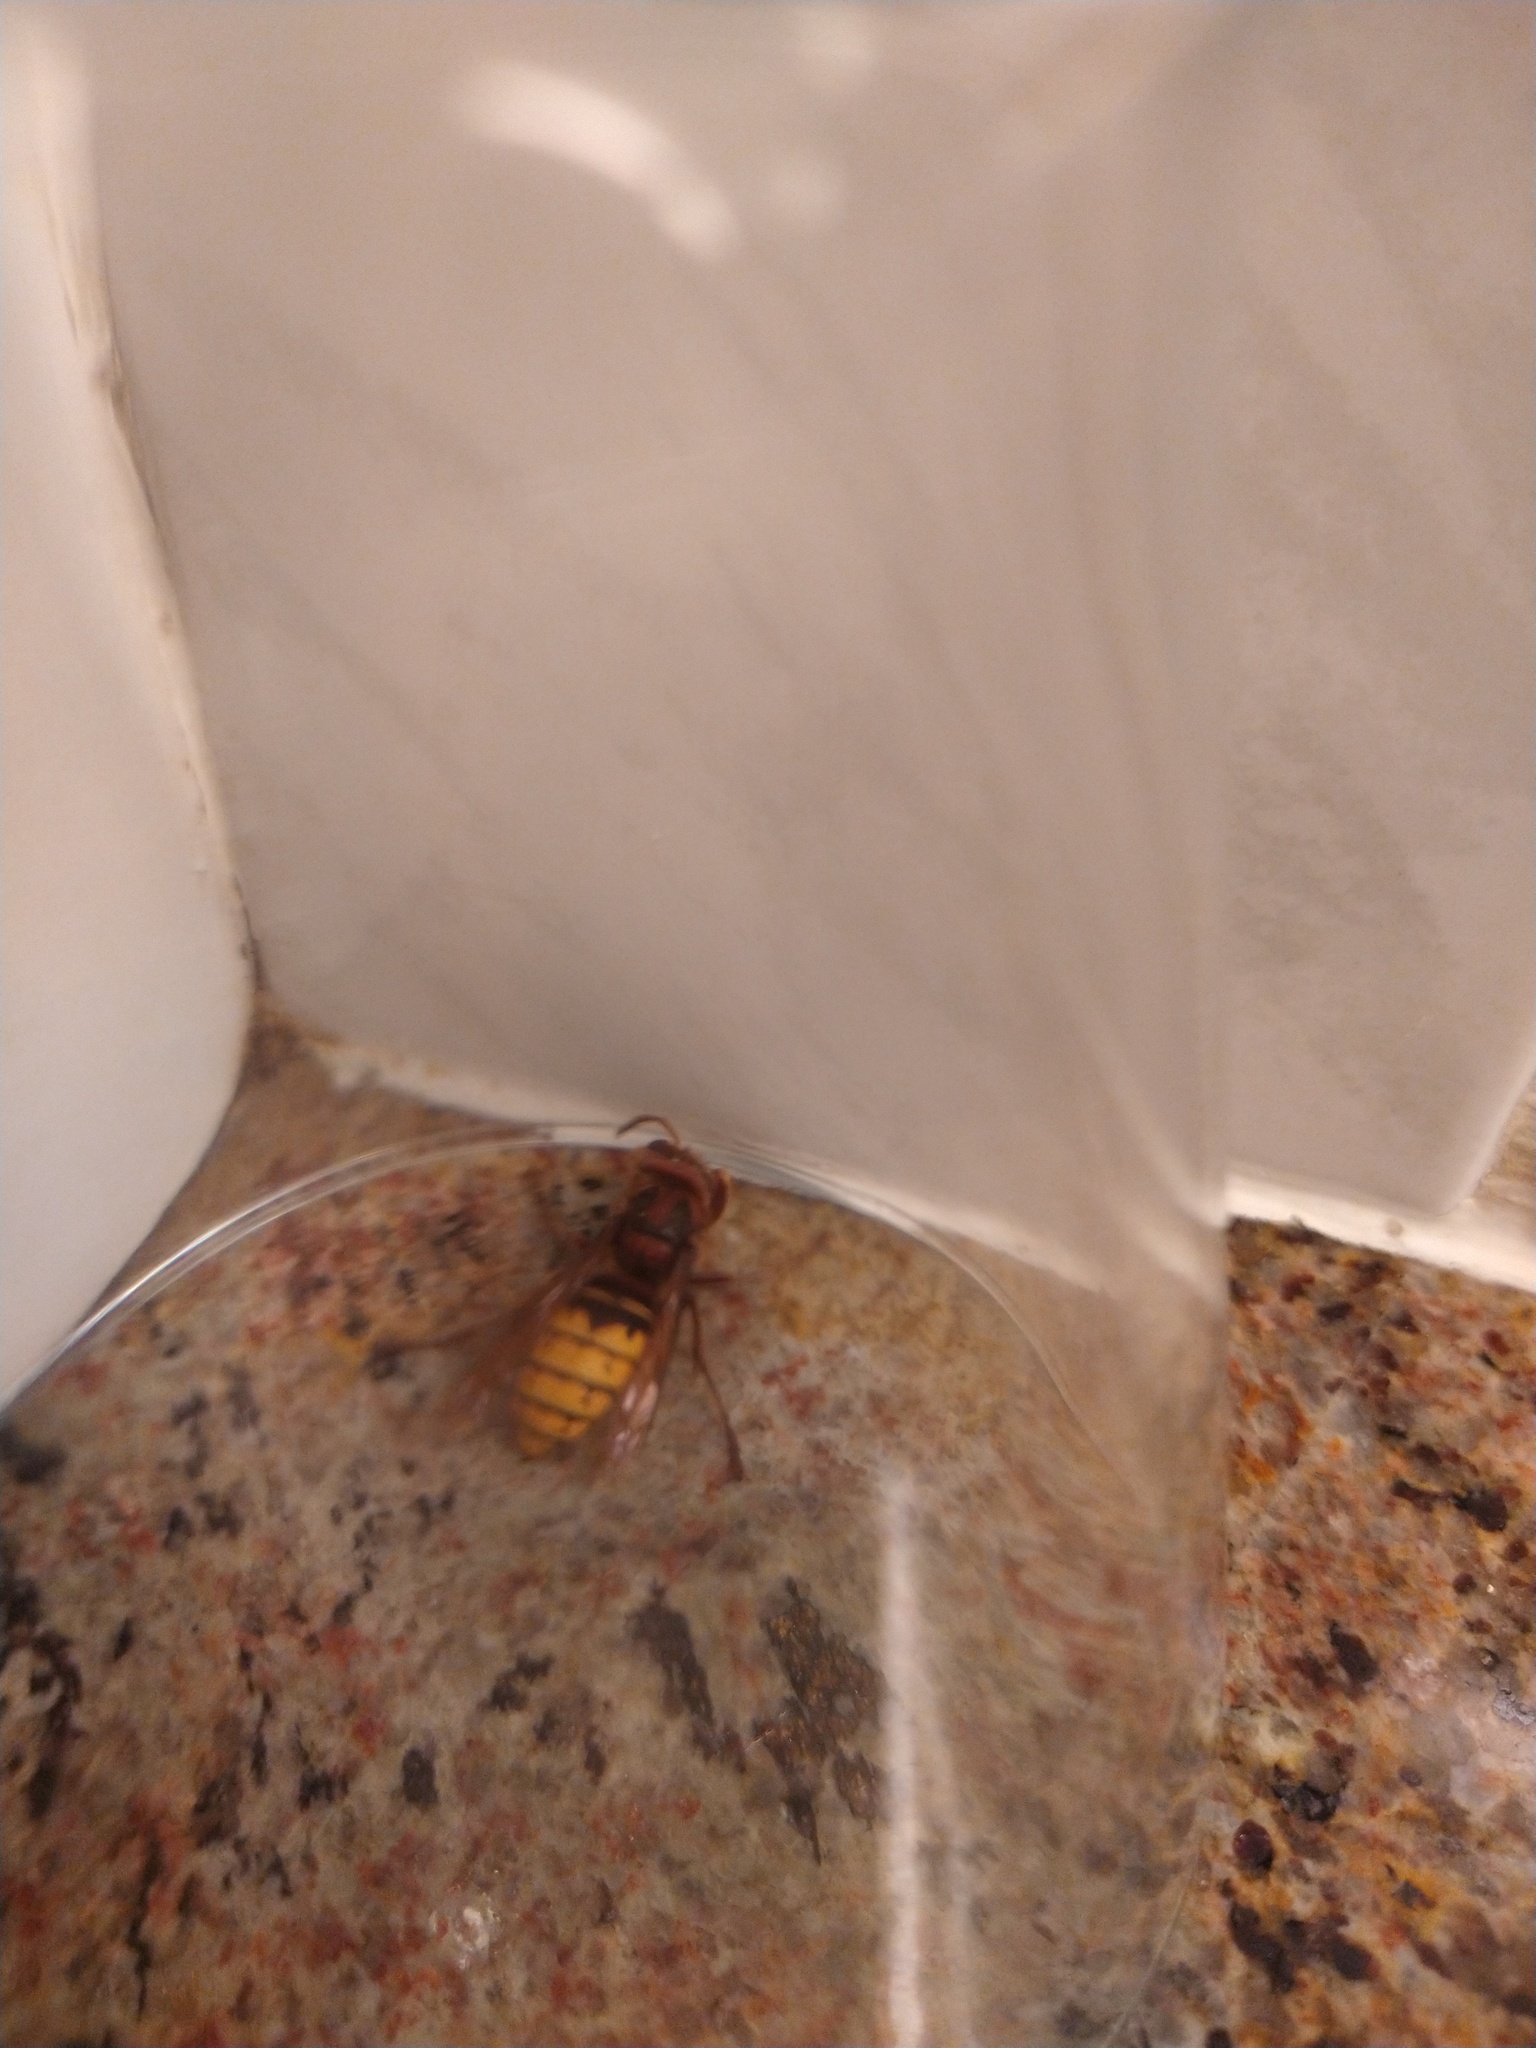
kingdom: Animalia
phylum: Arthropoda
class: Insecta
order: Hymenoptera
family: Vespidae
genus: Vespa
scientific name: Vespa crabro
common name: Hornet
